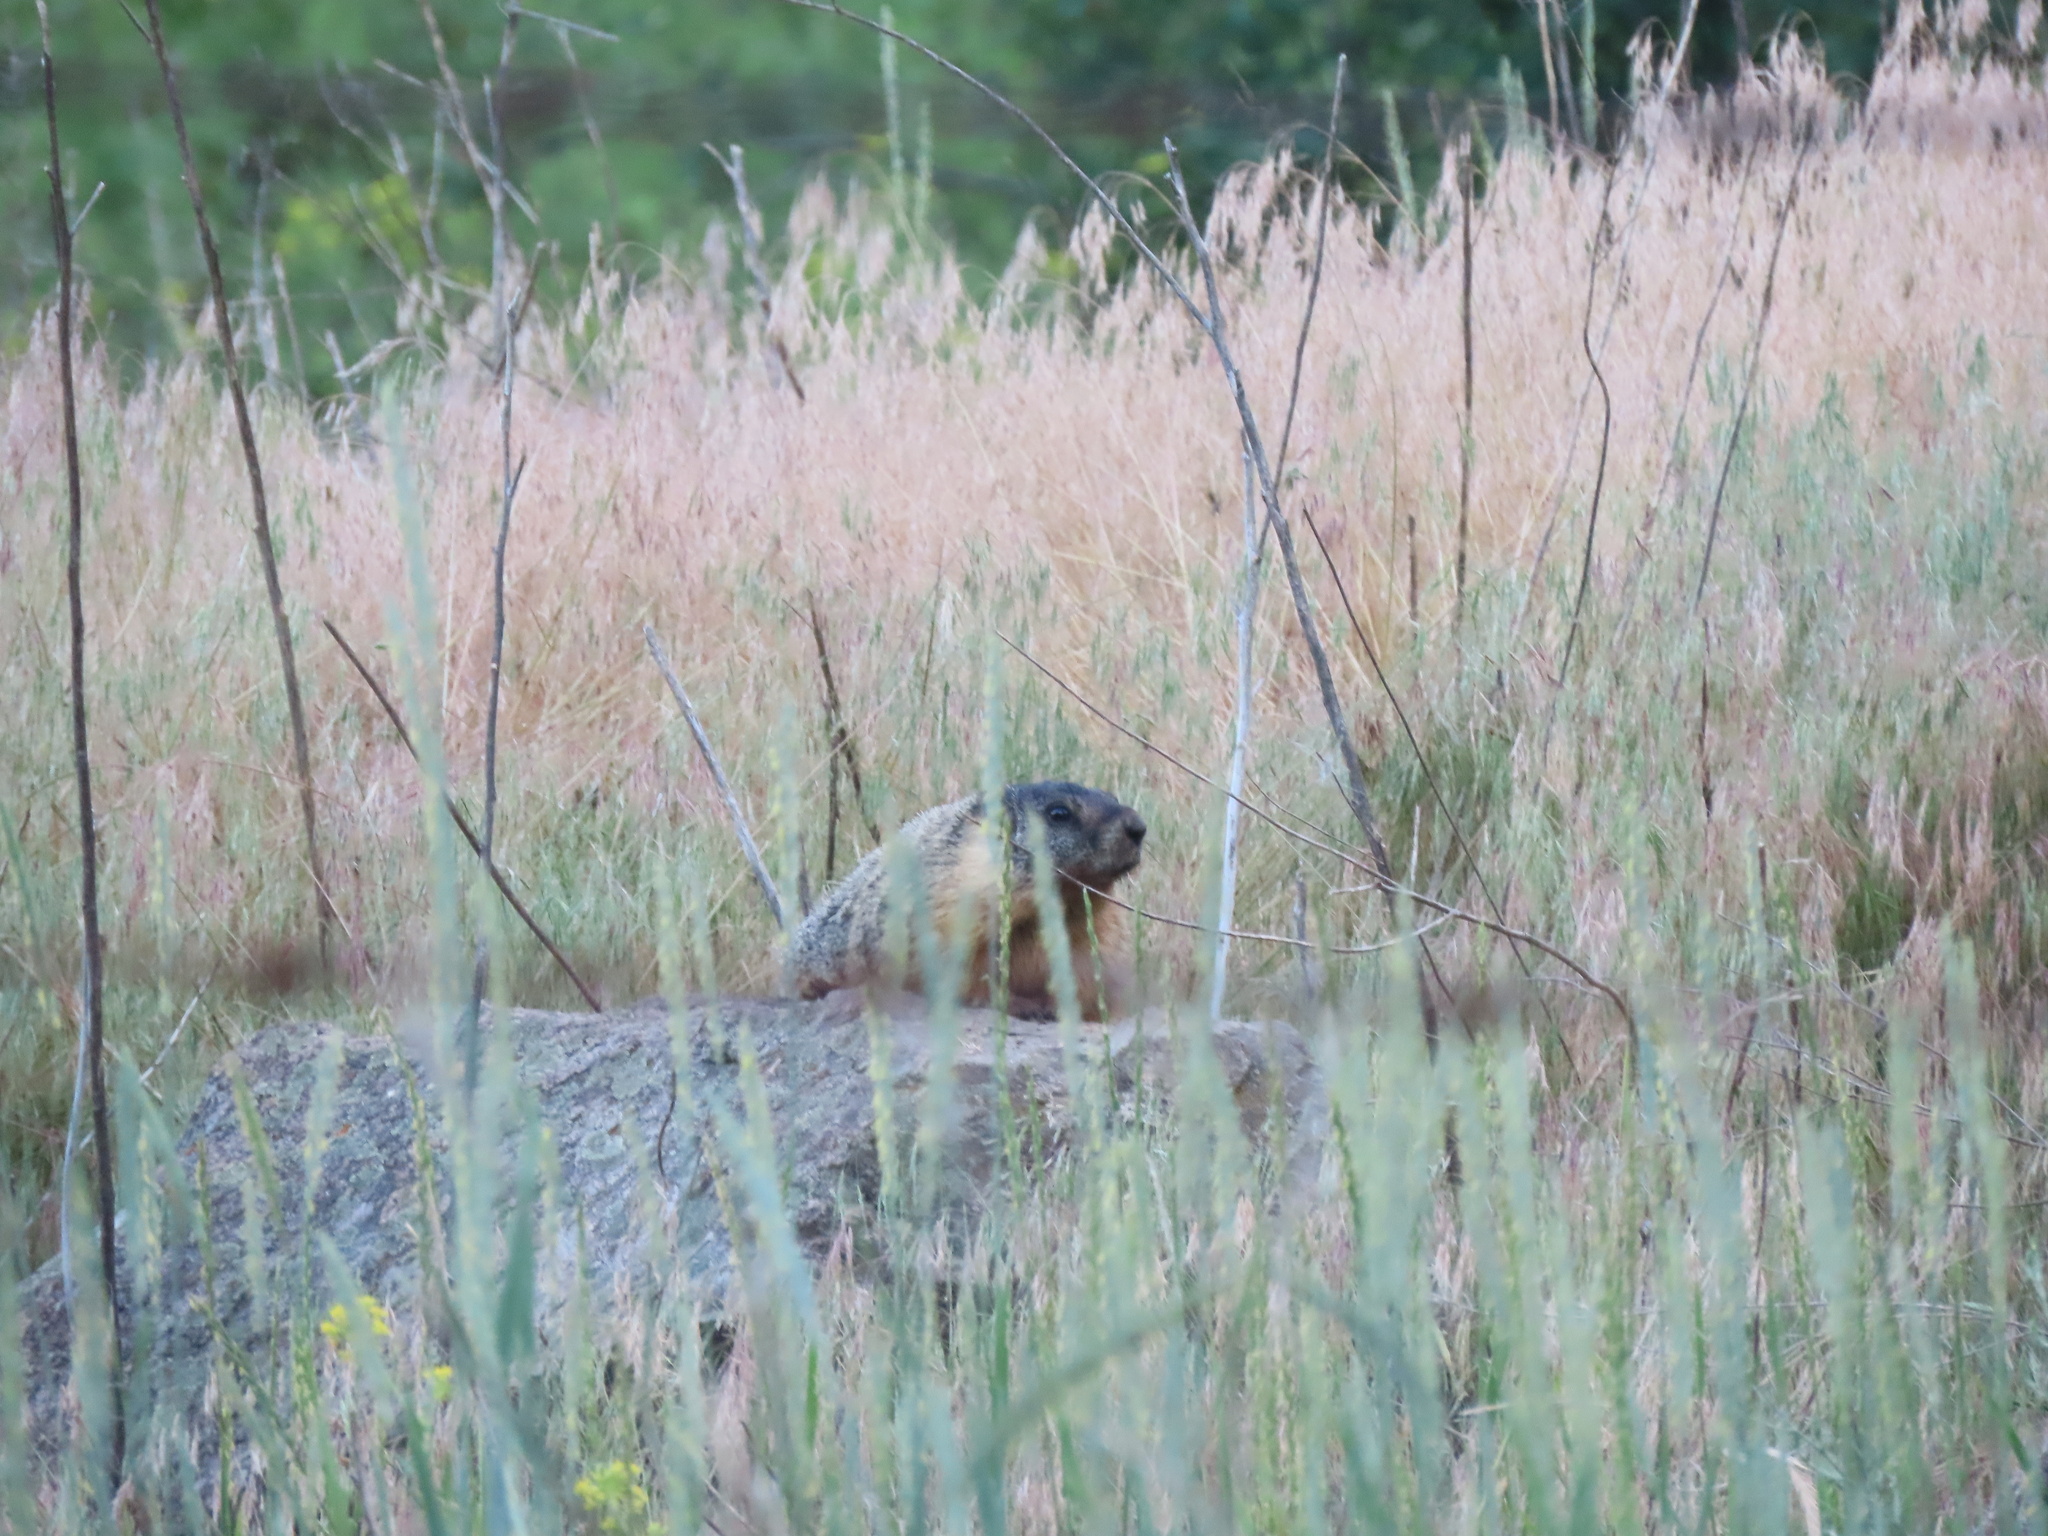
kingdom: Animalia
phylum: Chordata
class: Mammalia
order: Rodentia
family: Sciuridae
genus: Marmota
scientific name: Marmota flaviventris
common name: Yellow-bellied marmot
